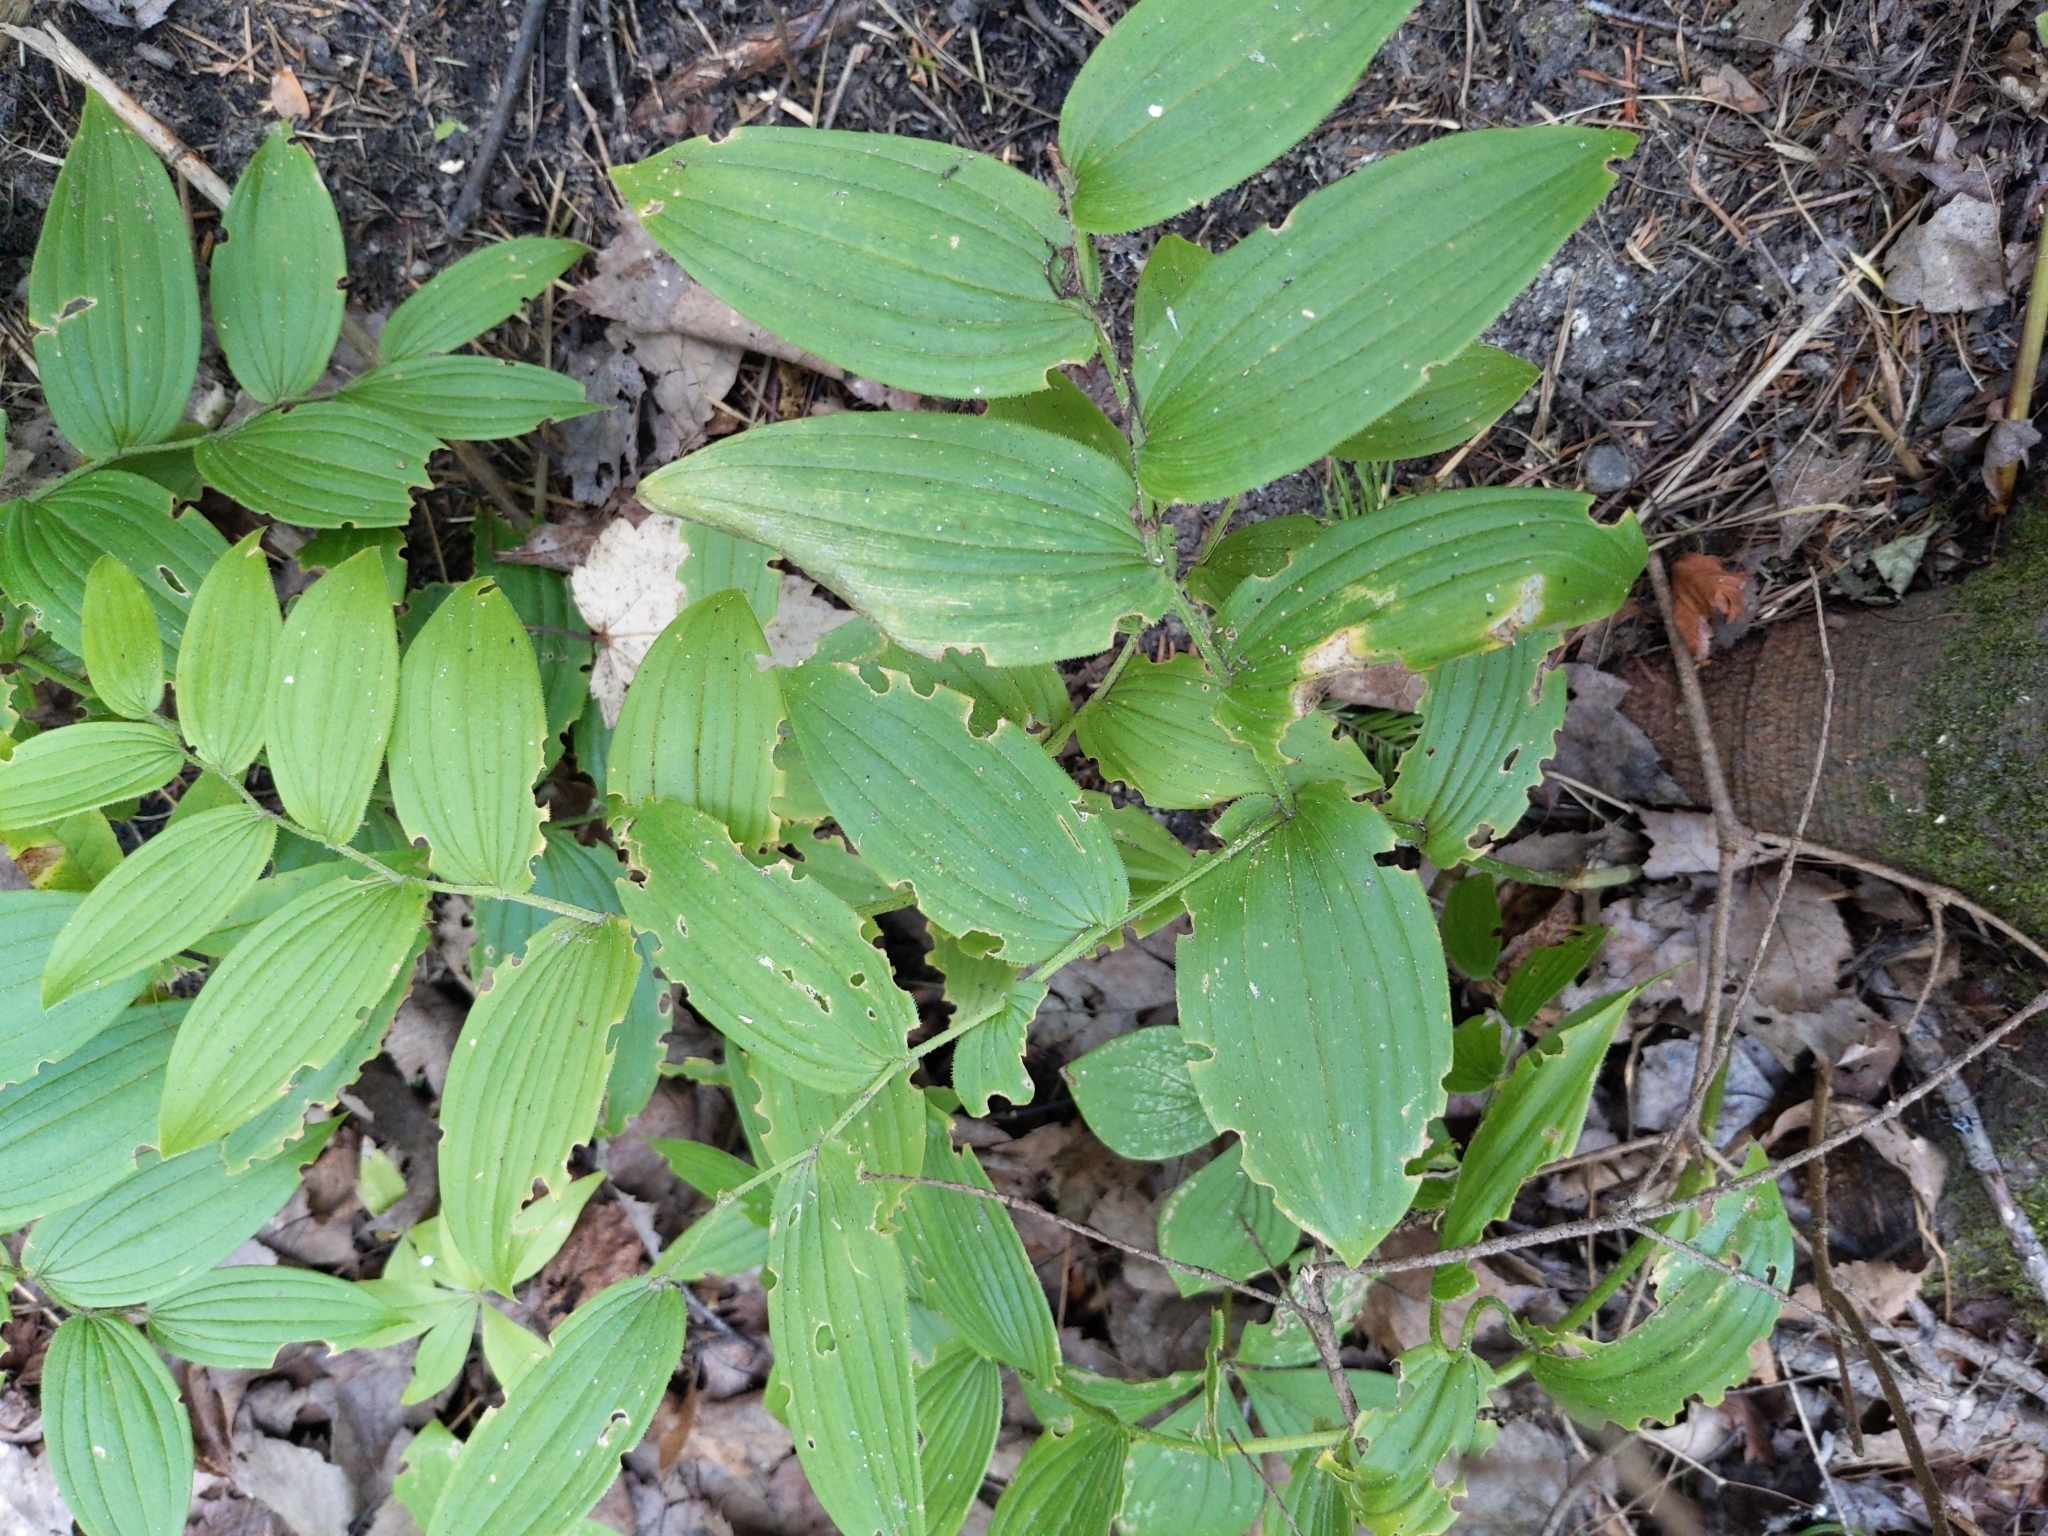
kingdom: Plantae
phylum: Tracheophyta
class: Liliopsida
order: Liliales
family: Liliaceae
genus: Streptopus
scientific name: Streptopus lanceolatus
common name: Rose mandarin
